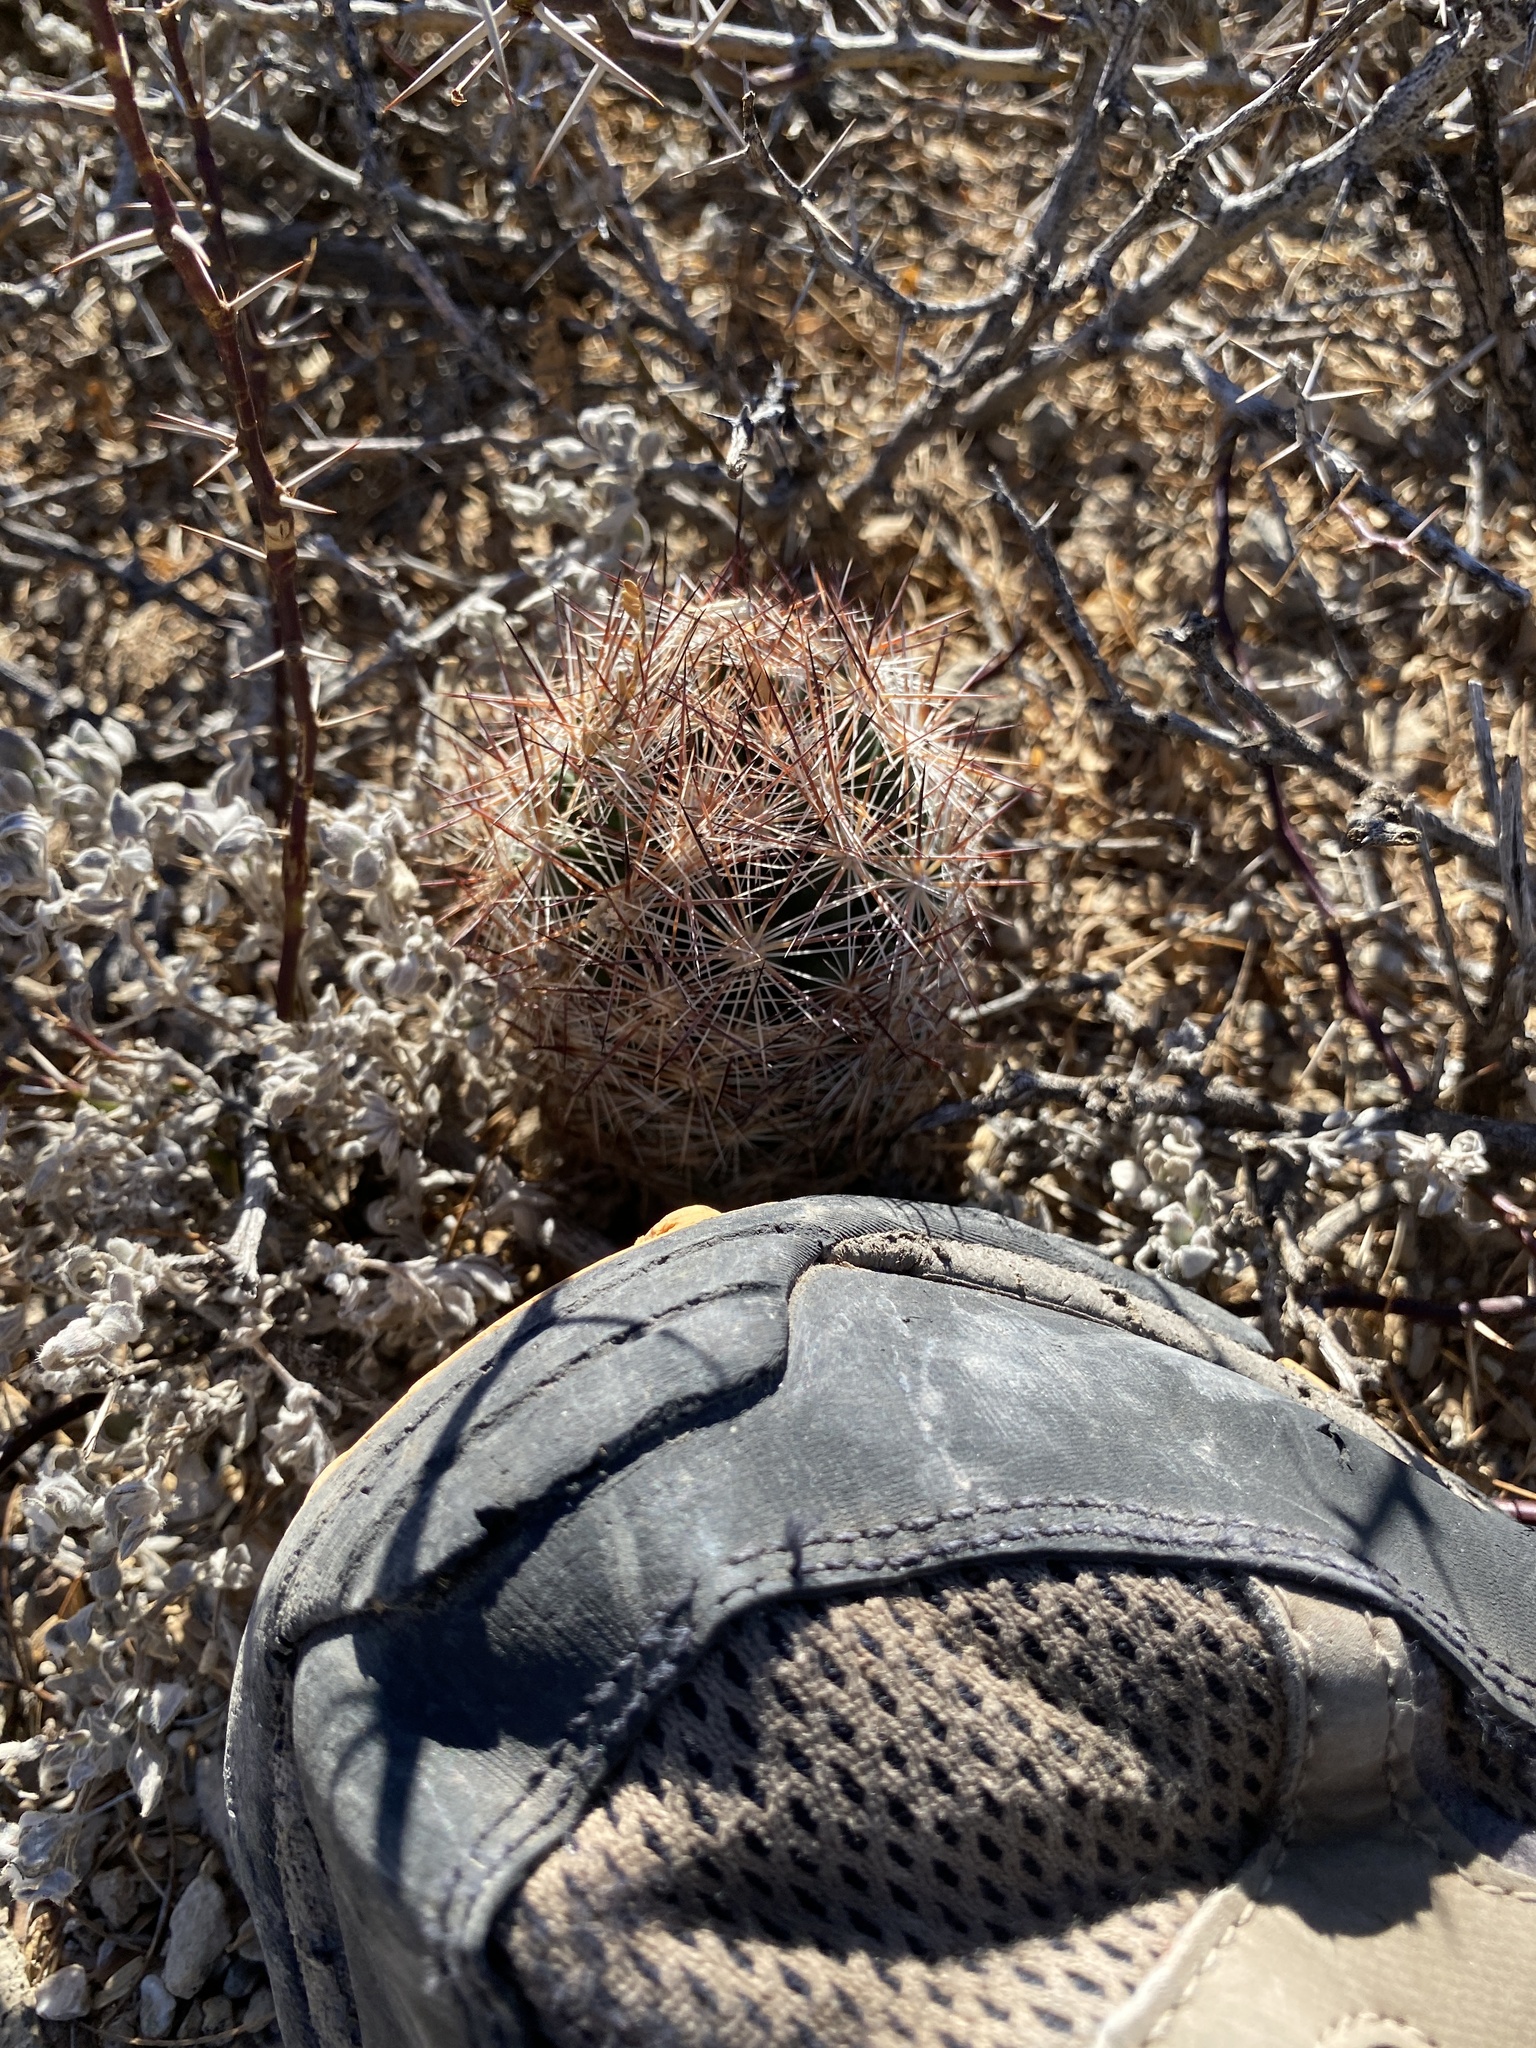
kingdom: Plantae
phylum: Tracheophyta
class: Magnoliopsida
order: Caryophyllales
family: Cactaceae
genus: Pelecyphora
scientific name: Pelecyphora vivipara
